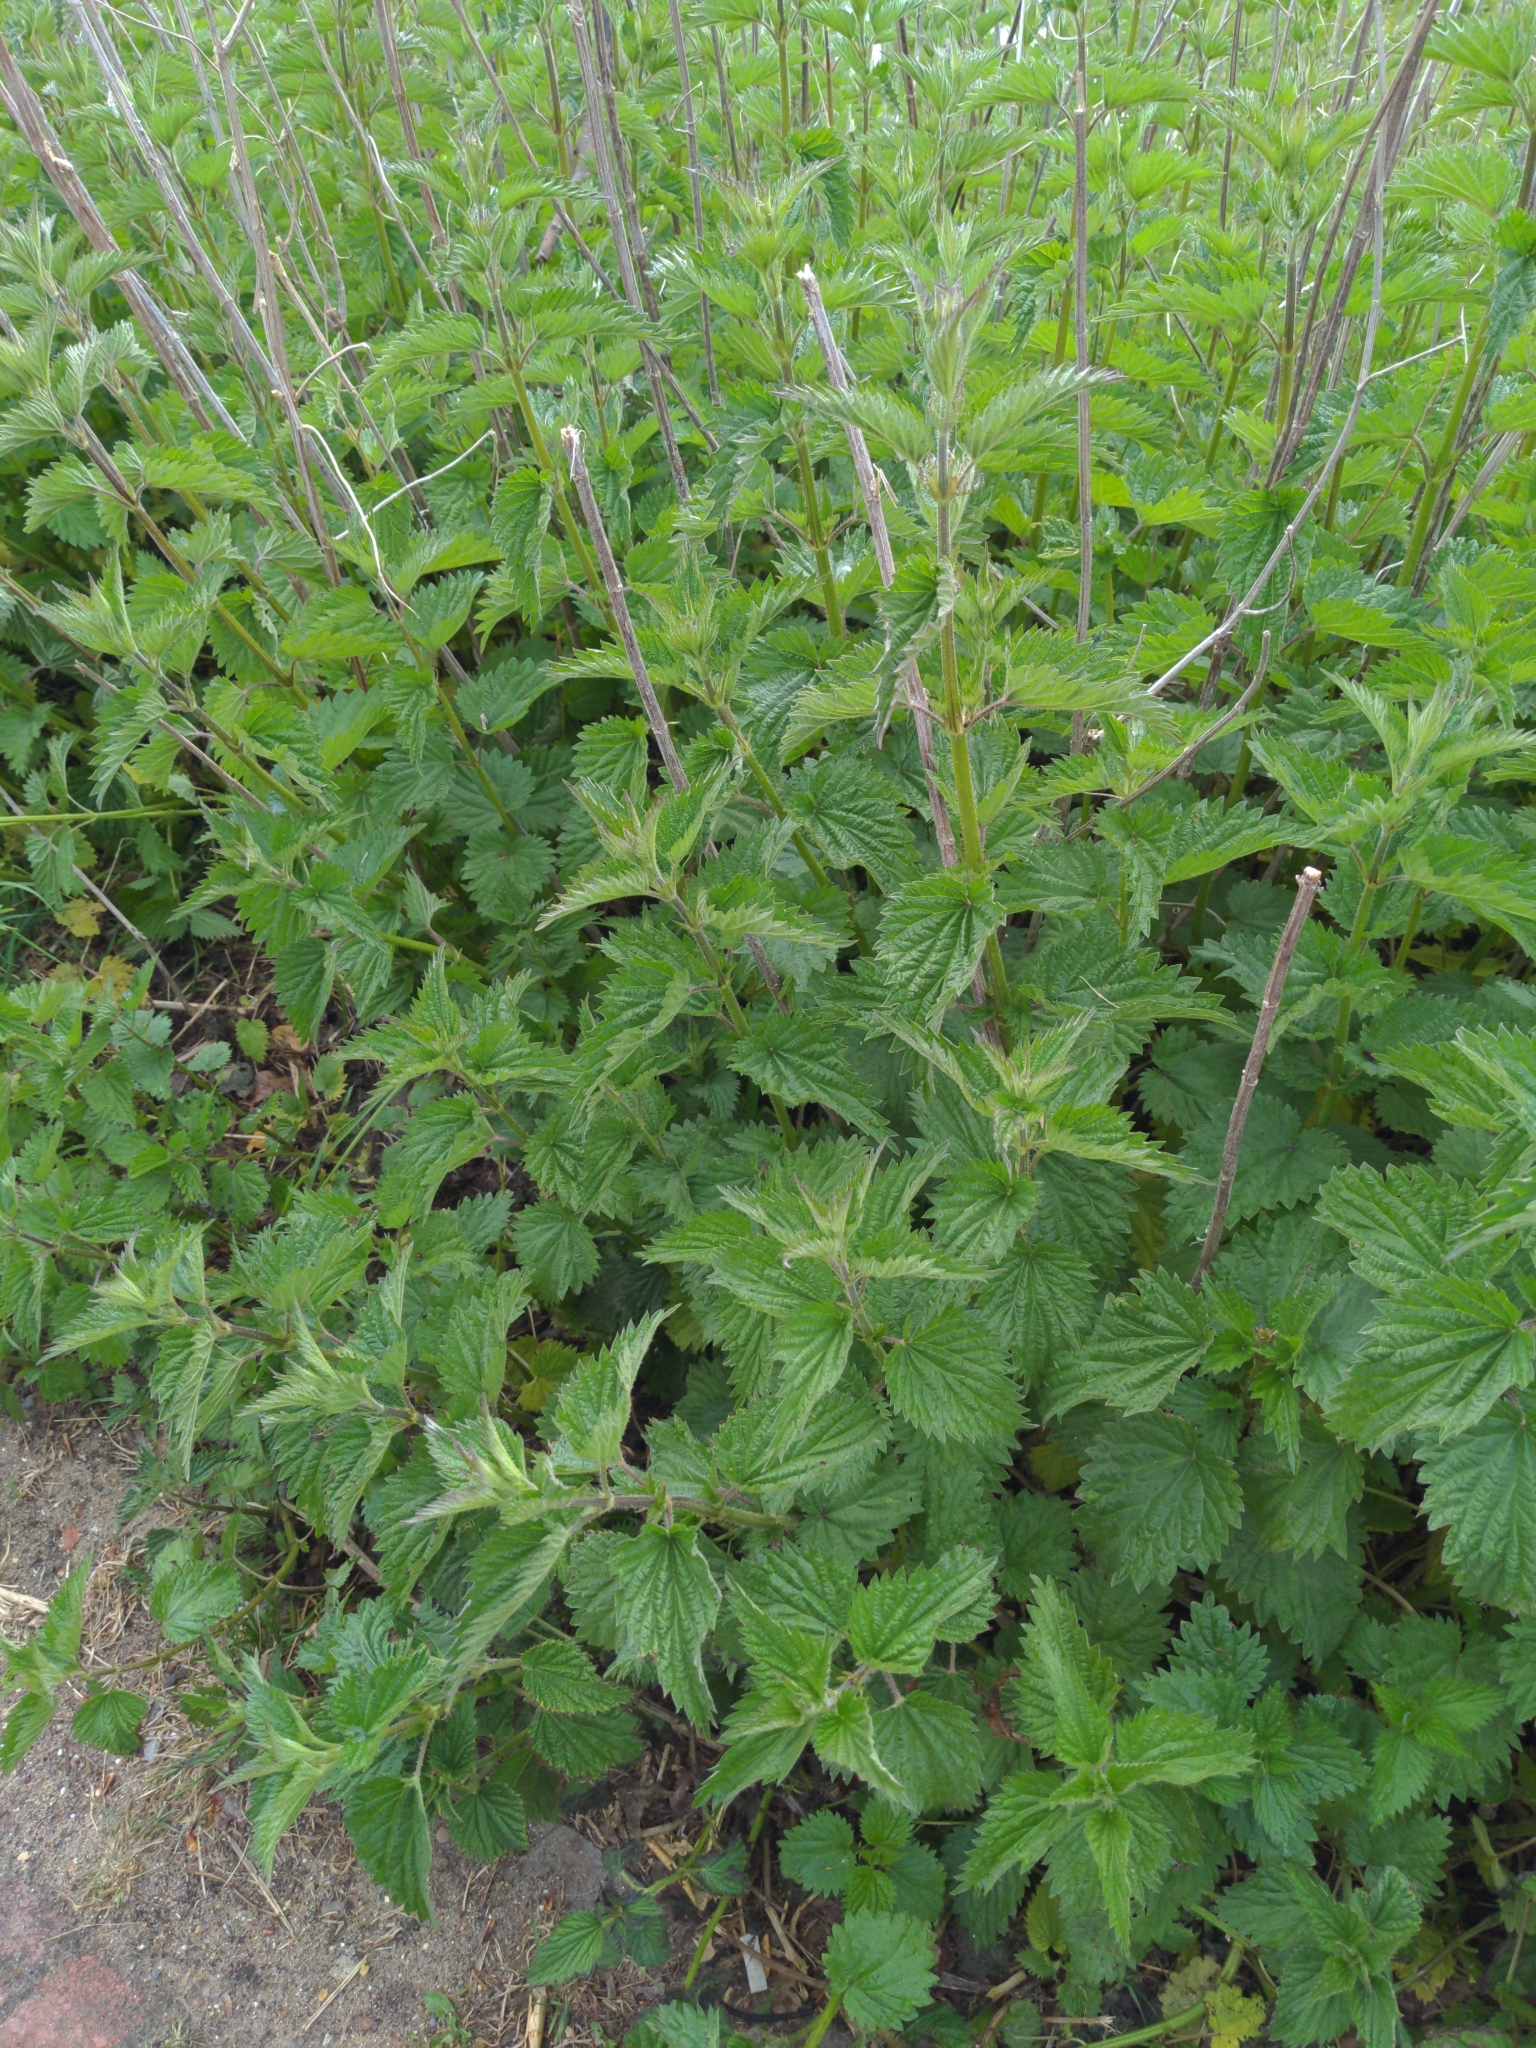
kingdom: Plantae
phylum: Tracheophyta
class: Magnoliopsida
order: Rosales
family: Urticaceae
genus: Urtica
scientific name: Urtica dioica
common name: Common nettle
